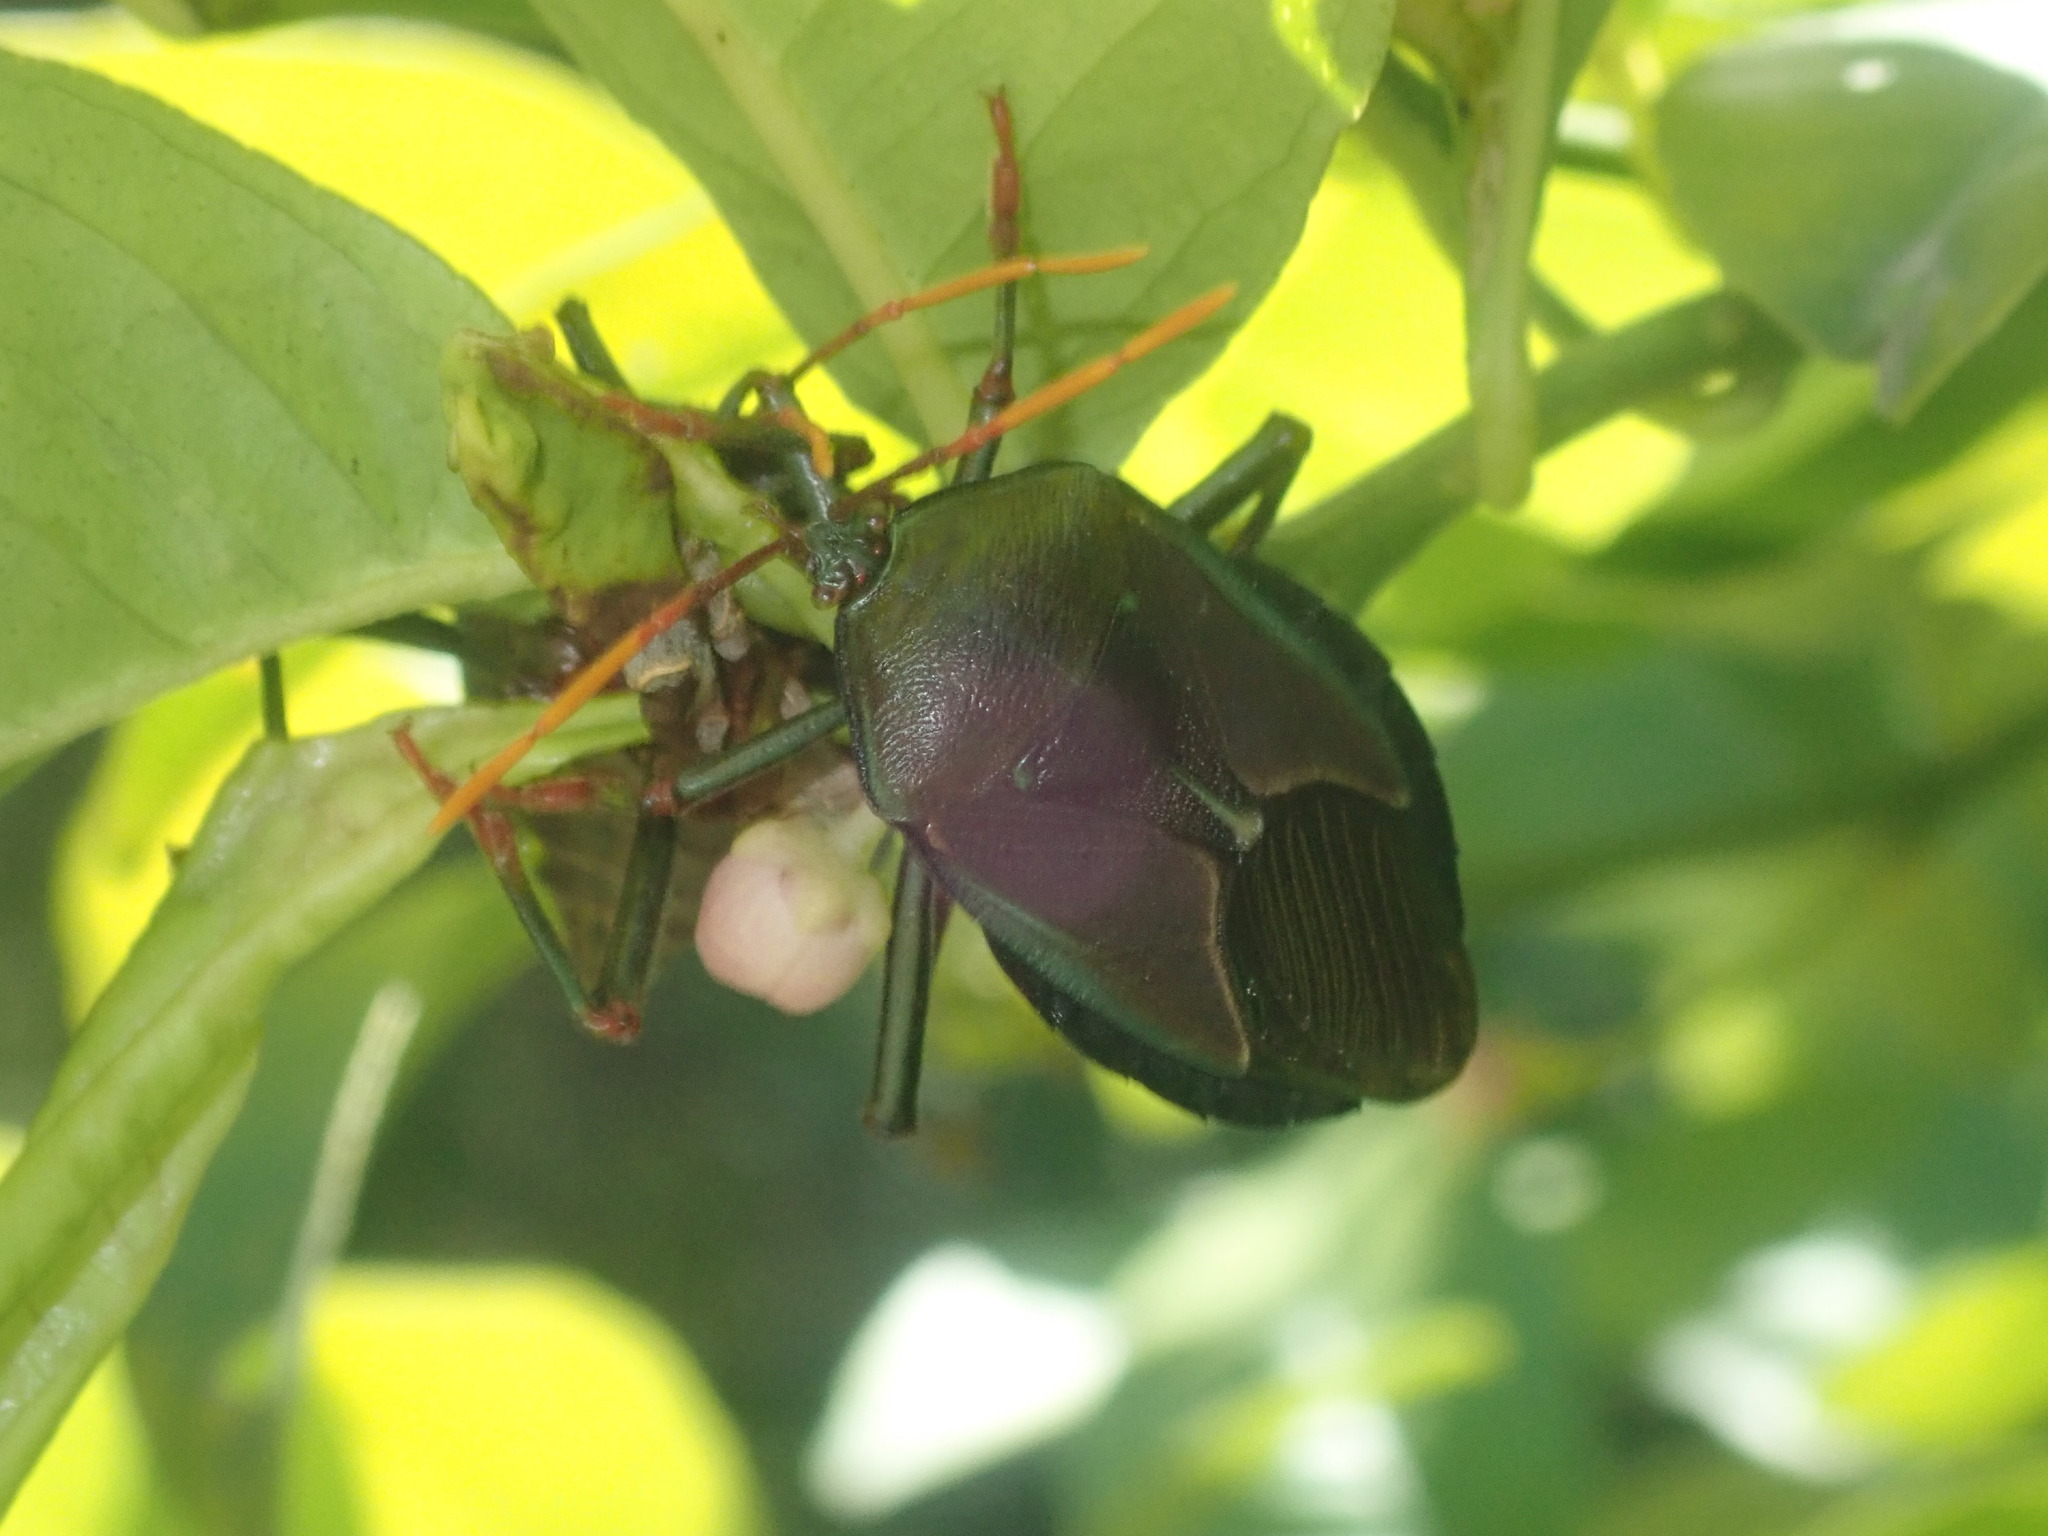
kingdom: Animalia
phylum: Arthropoda
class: Insecta
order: Hemiptera
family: Tessaratomidae
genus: Musgraveia
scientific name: Musgraveia sulciventris
